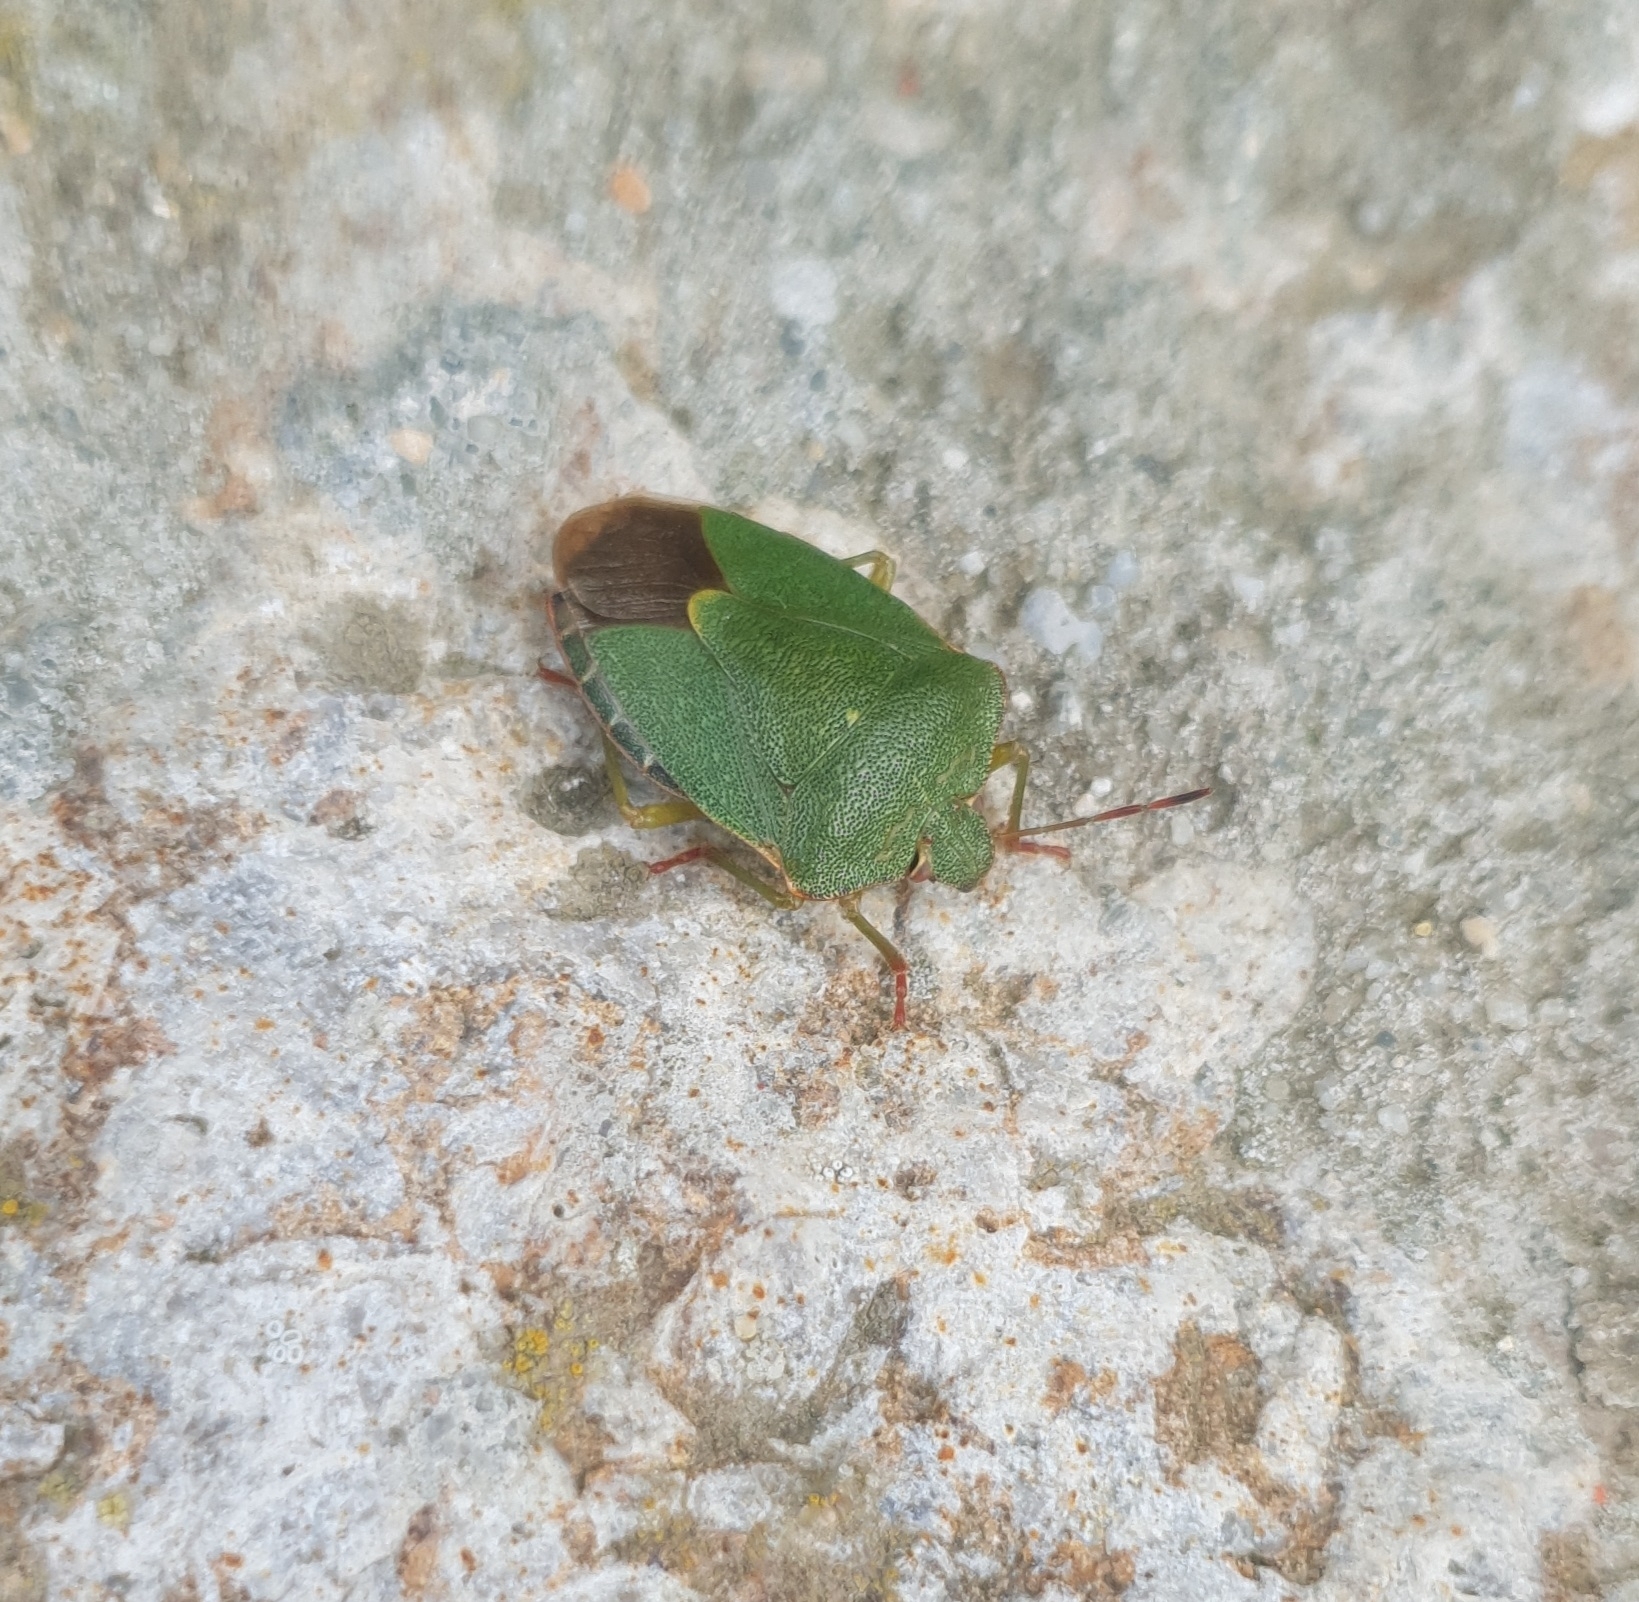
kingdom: Animalia
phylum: Arthropoda
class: Insecta
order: Hemiptera
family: Pentatomidae
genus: Palomena
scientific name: Palomena prasina
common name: Green shieldbug
